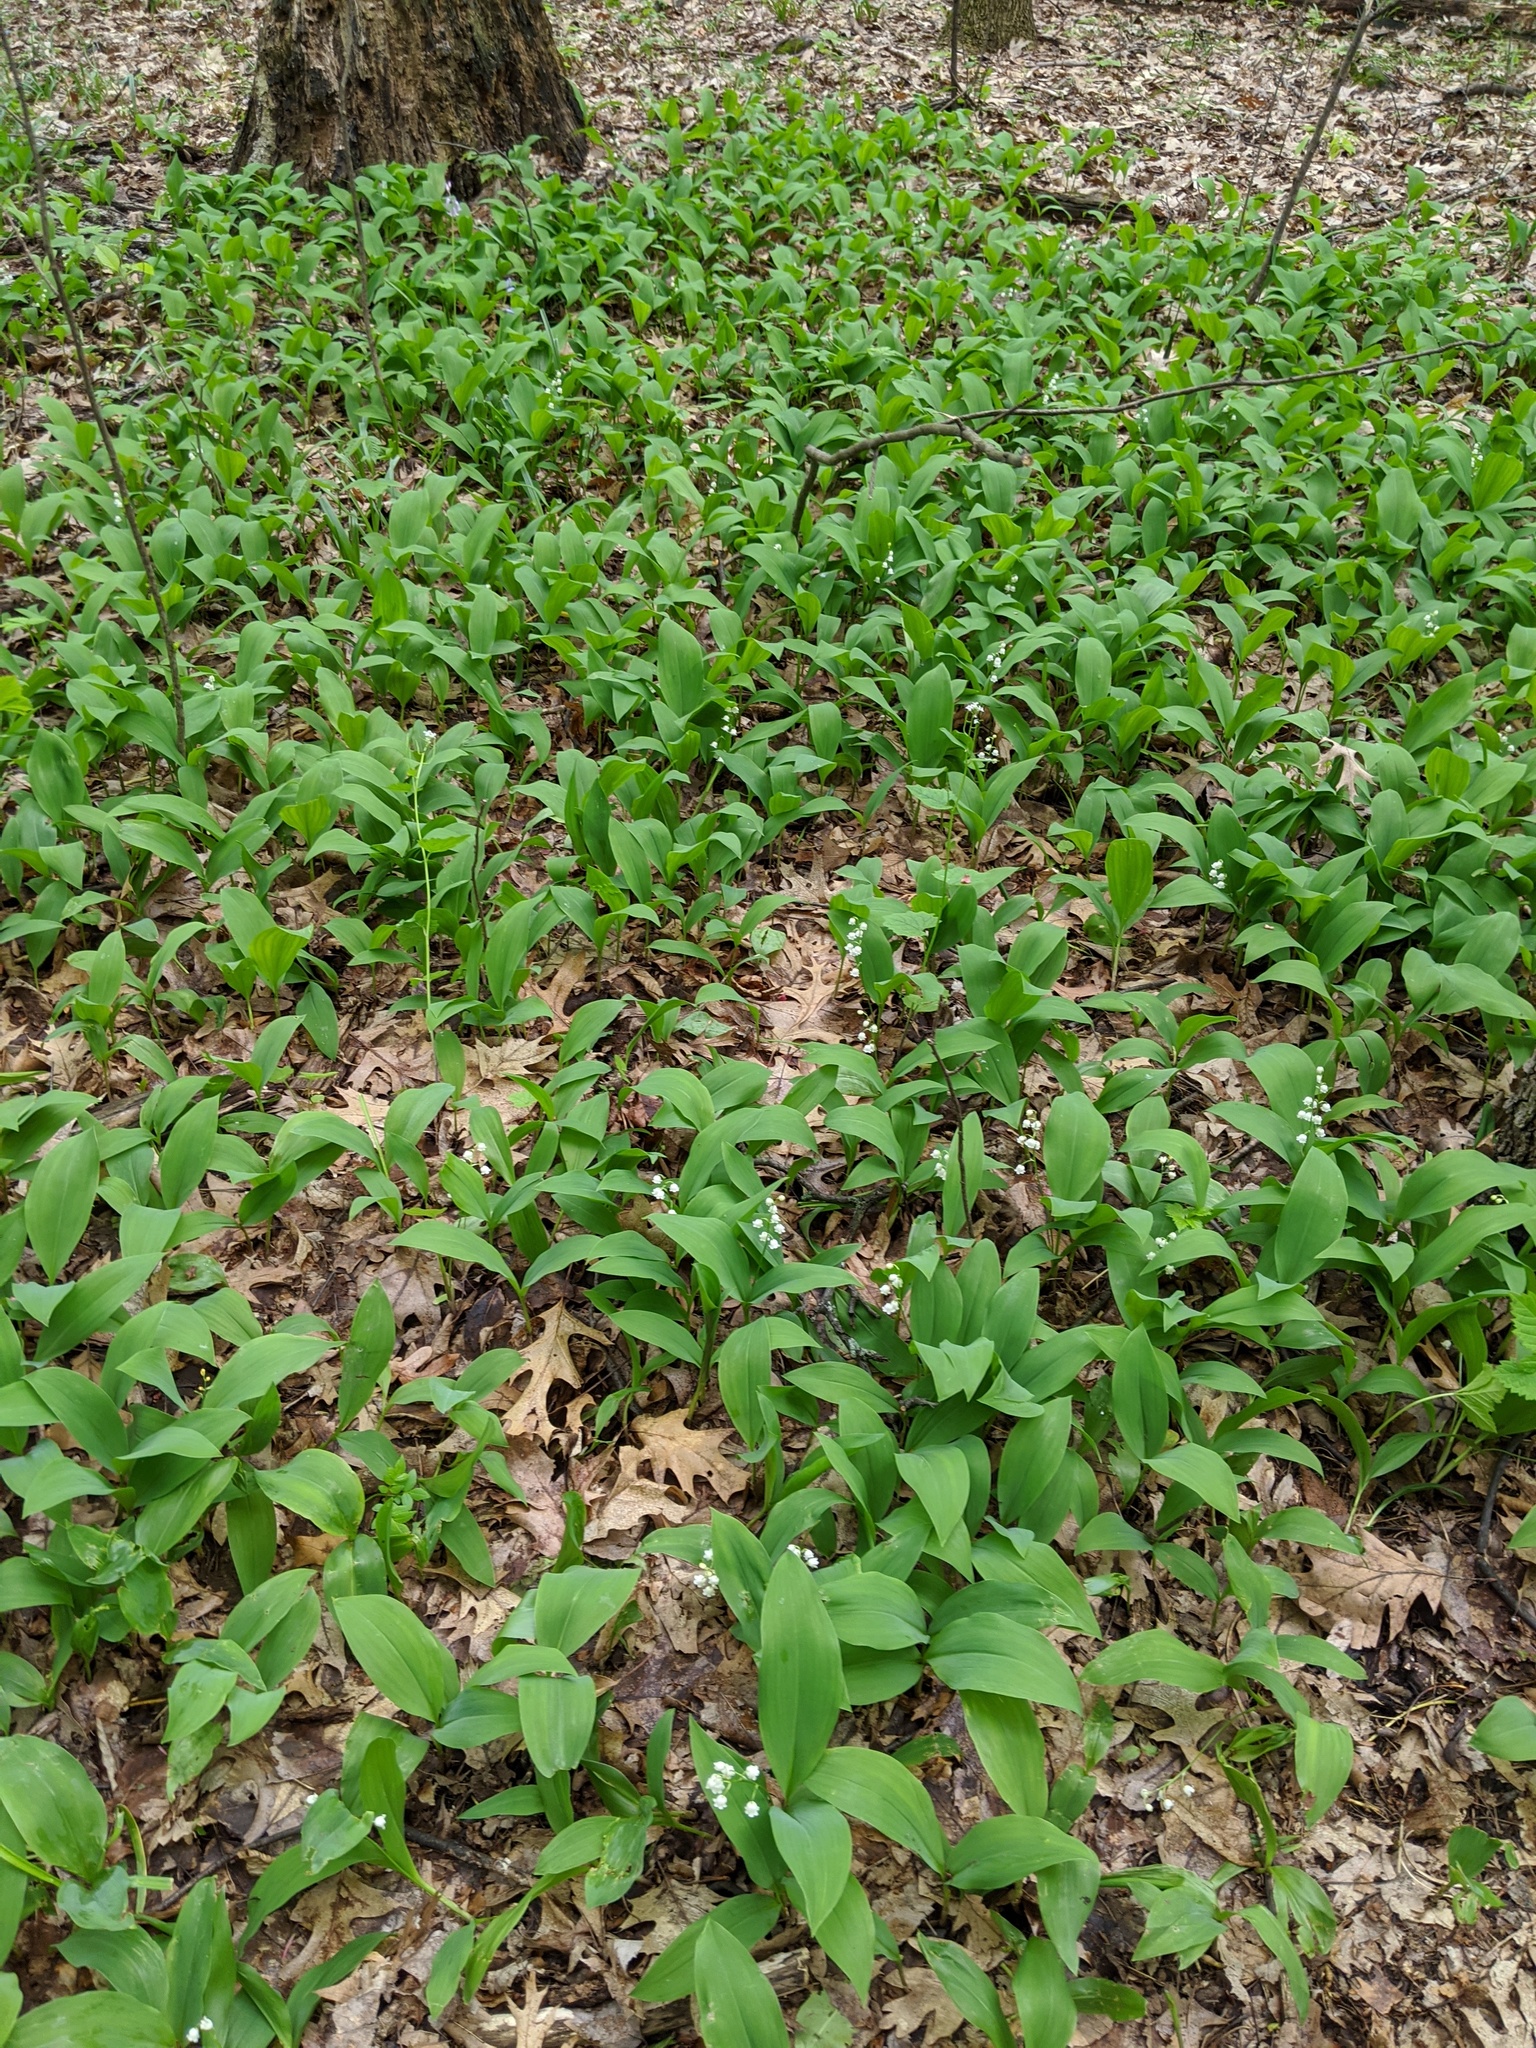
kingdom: Plantae
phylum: Tracheophyta
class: Liliopsida
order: Asparagales
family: Asparagaceae
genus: Convallaria
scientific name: Convallaria majalis
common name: Lily-of-the-valley
